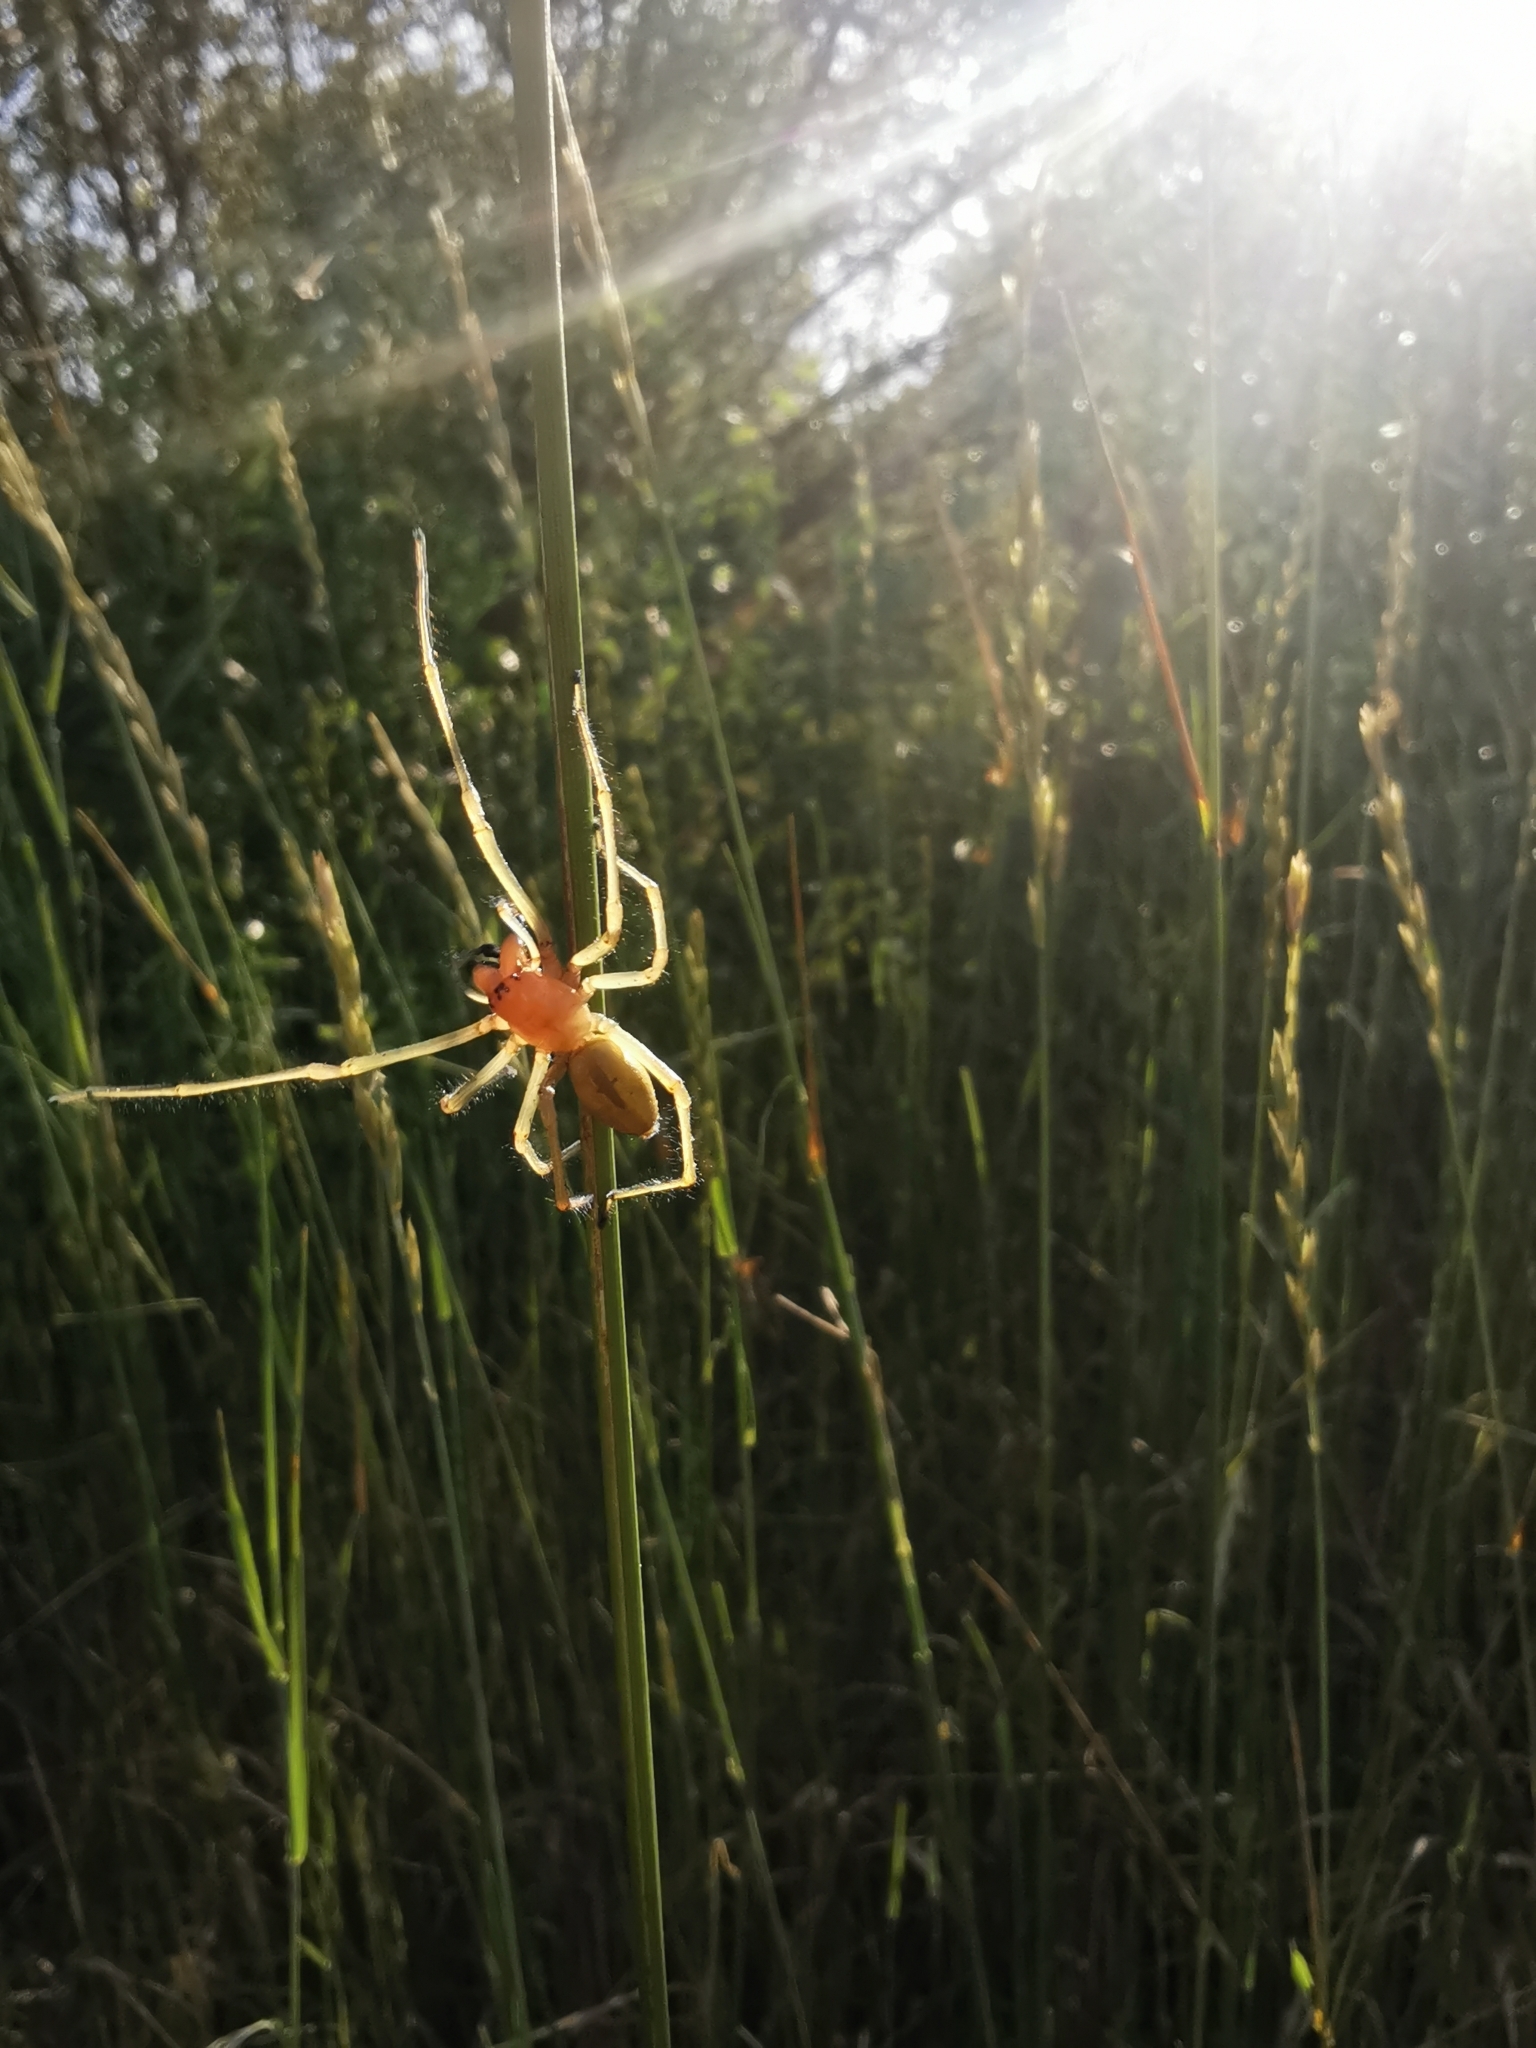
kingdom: Animalia
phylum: Arthropoda
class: Arachnida
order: Araneae
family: Cheiracanthiidae
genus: Cheiracanthium
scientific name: Cheiracanthium punctorium
